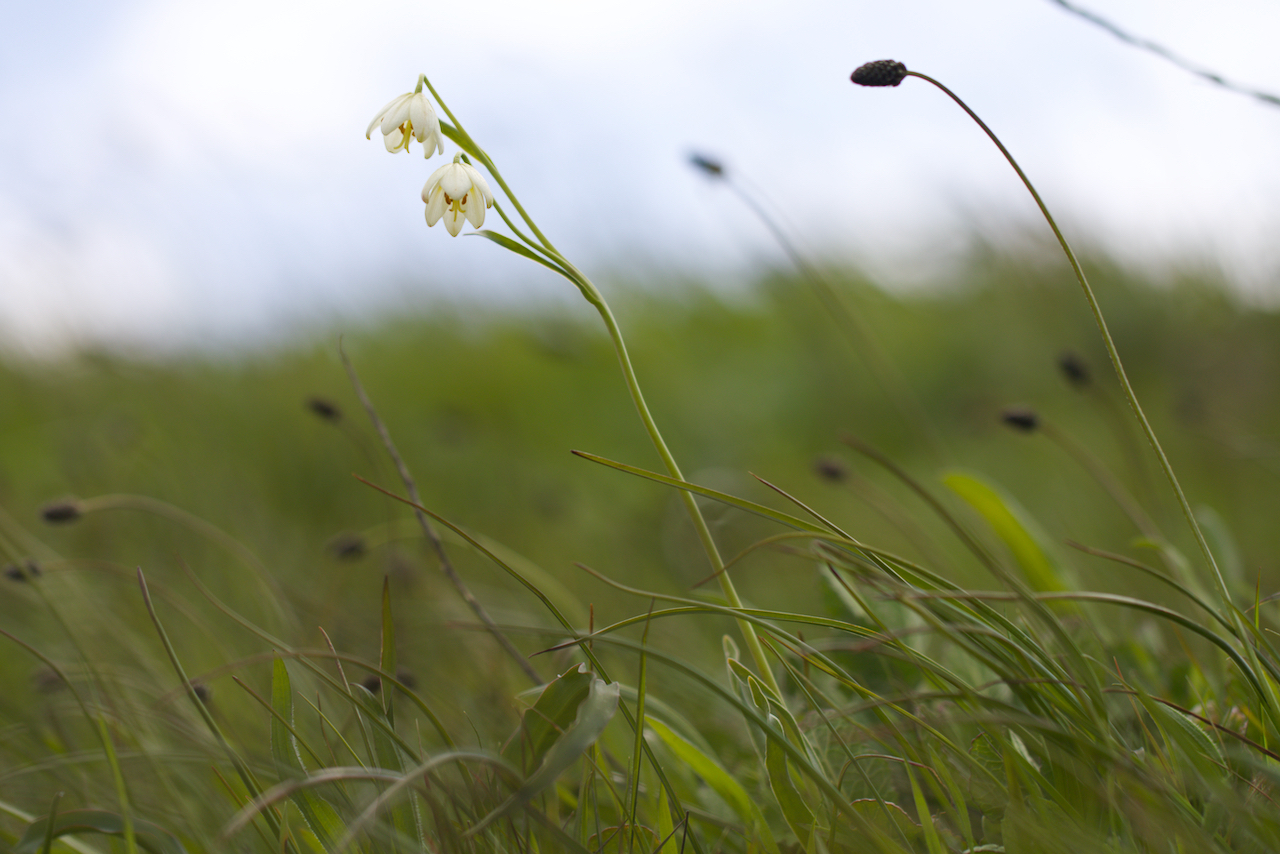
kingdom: Plantae
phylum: Tracheophyta
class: Liliopsida
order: Liliales
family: Liliaceae
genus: Fritillaria
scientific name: Fritillaria liliacea
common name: Fragrant fritillary
